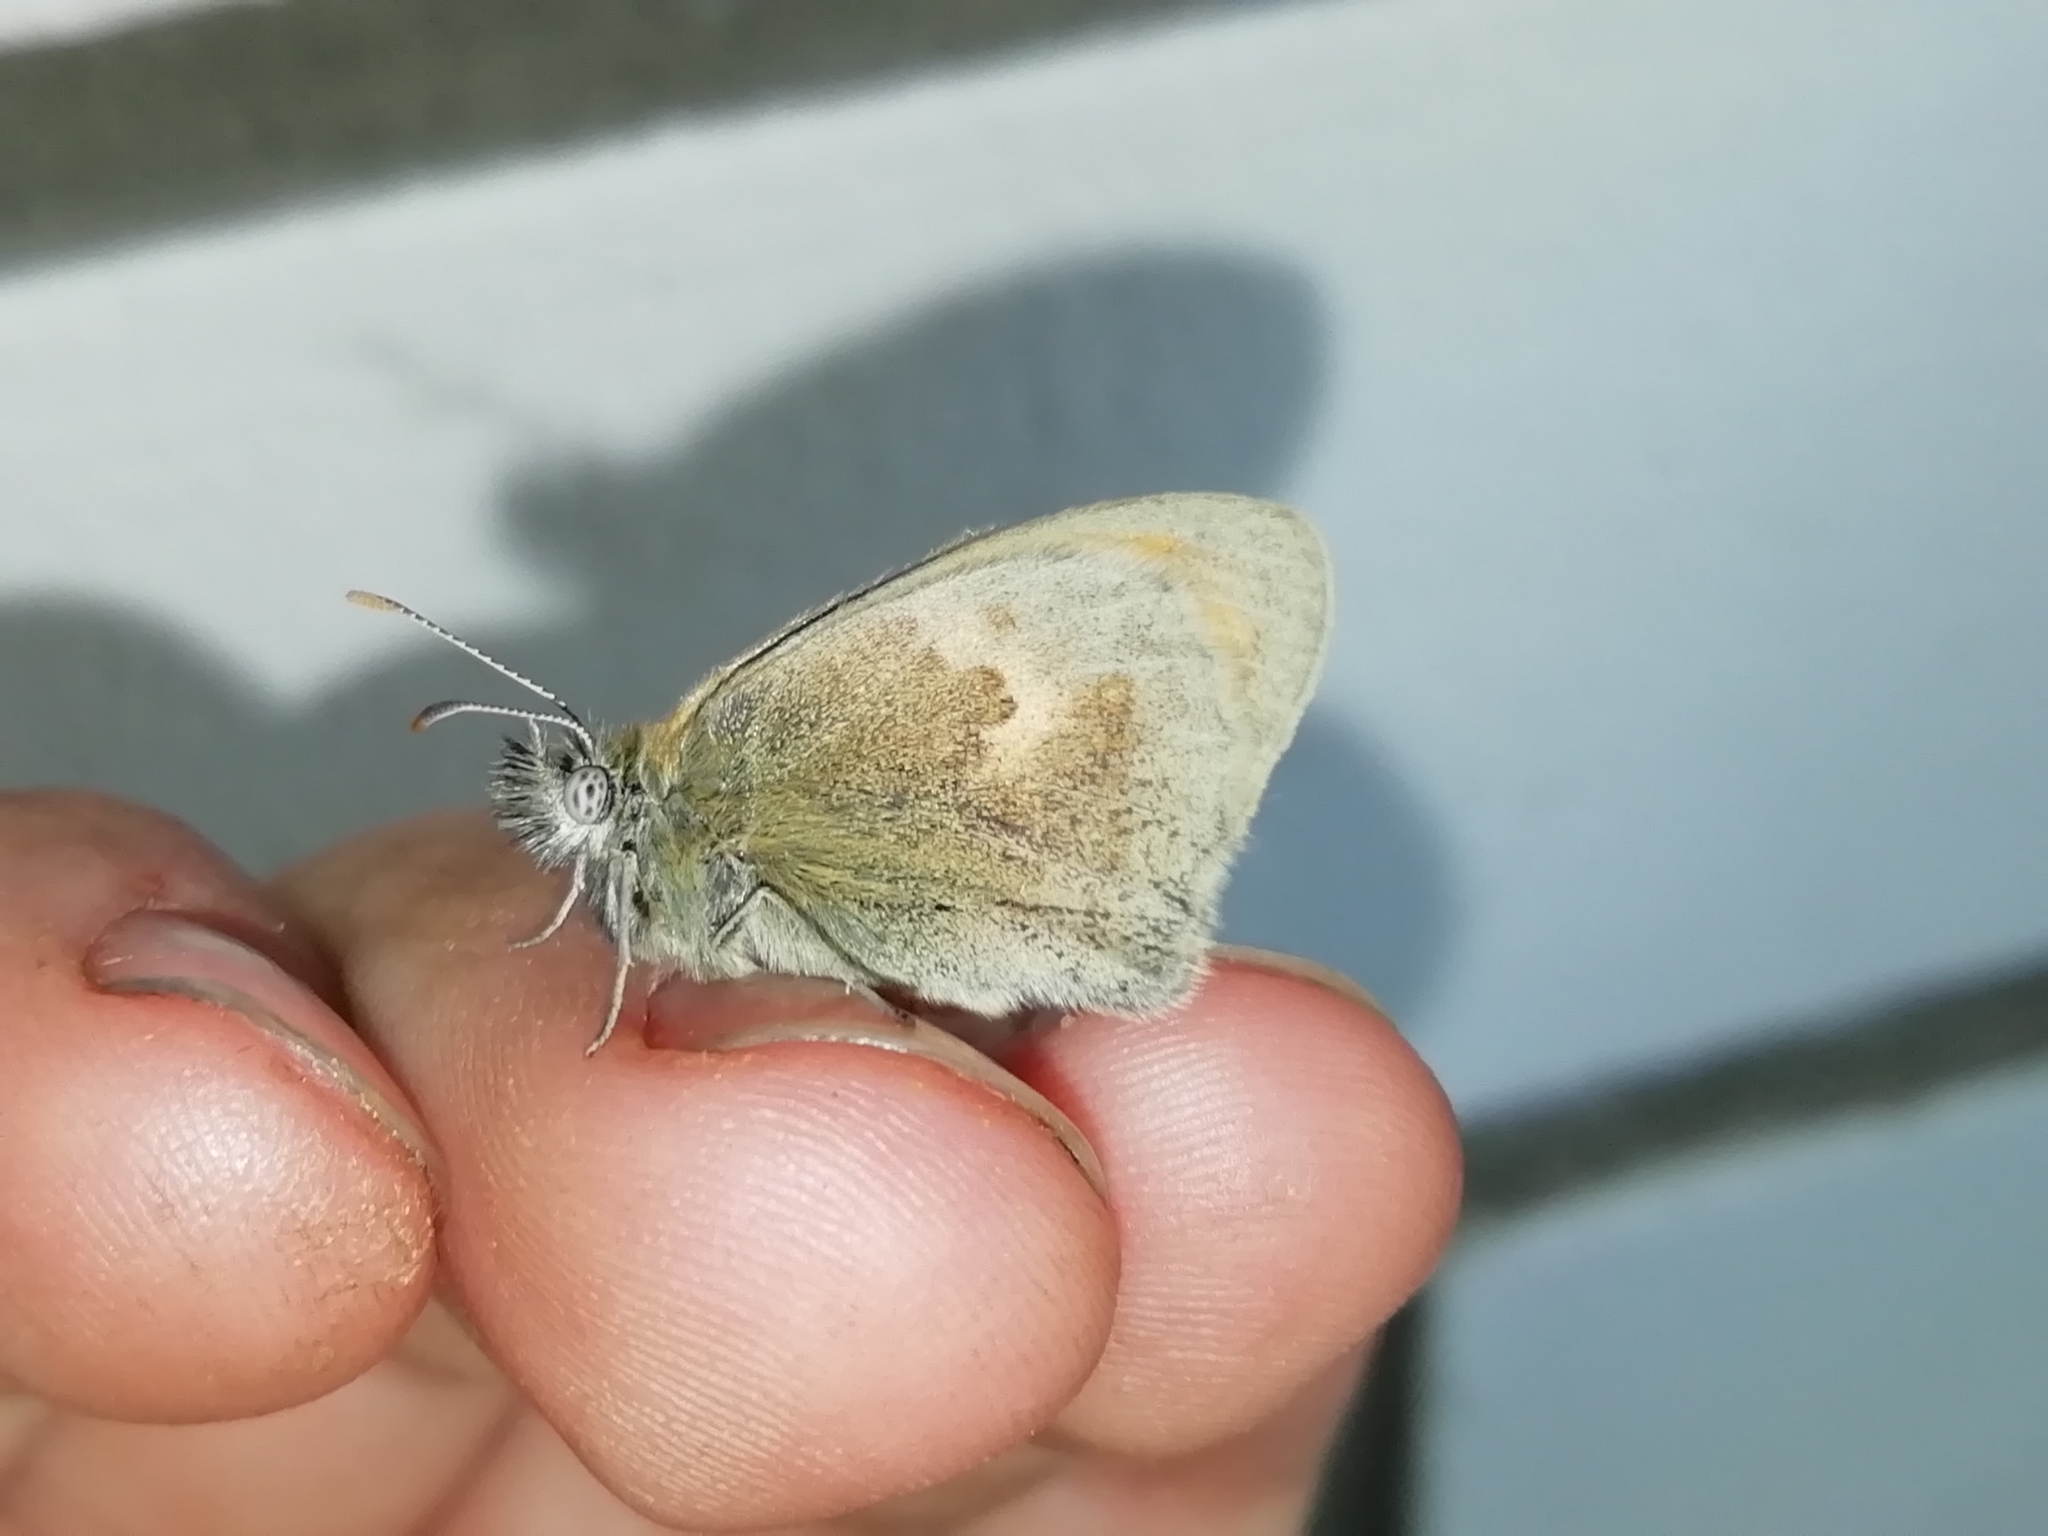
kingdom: Animalia
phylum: Arthropoda
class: Insecta
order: Lepidoptera
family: Nymphalidae
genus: Coenonympha
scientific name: Coenonympha pamphilus
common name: Small heath
